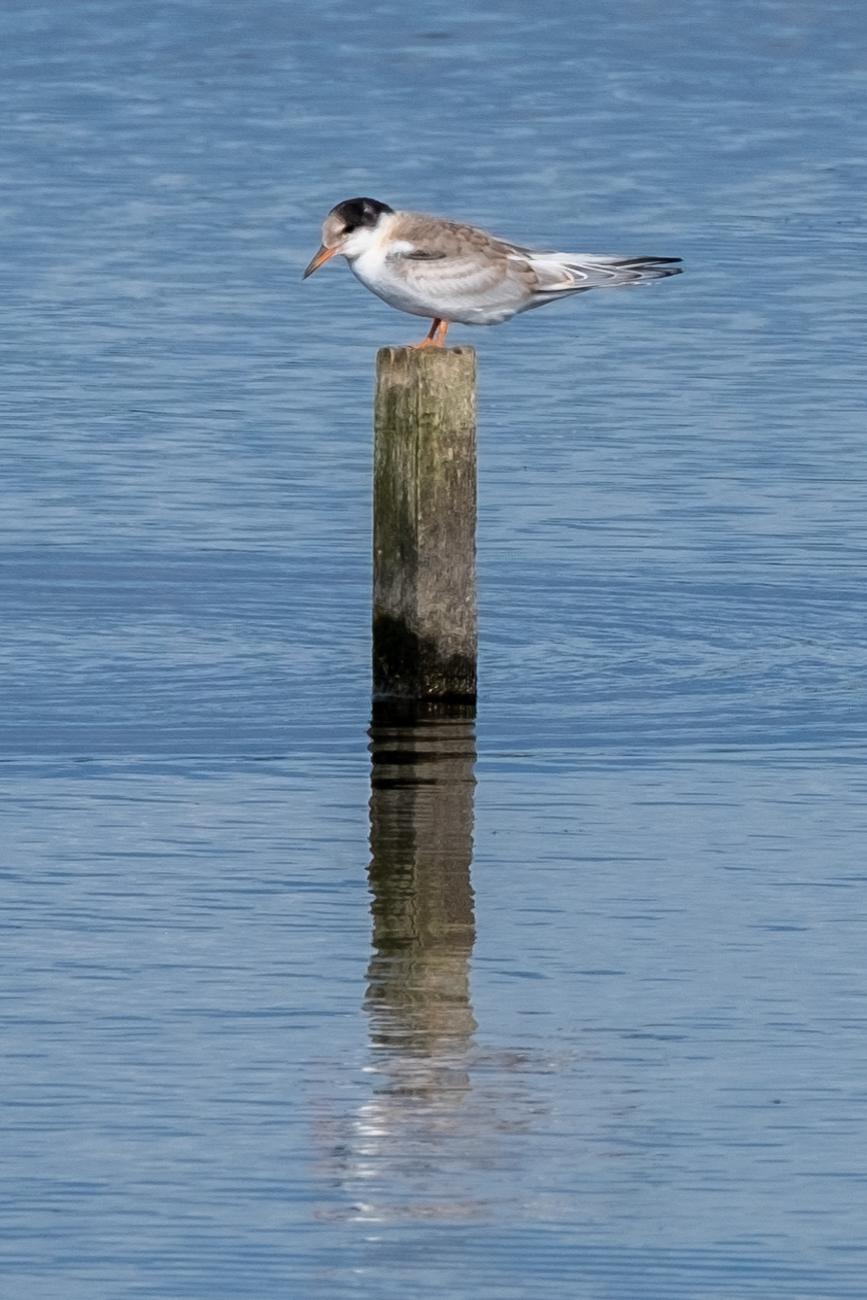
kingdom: Animalia
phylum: Chordata
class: Aves
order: Charadriiformes
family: Laridae
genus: Sterna
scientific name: Sterna hirundo
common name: Common tern
